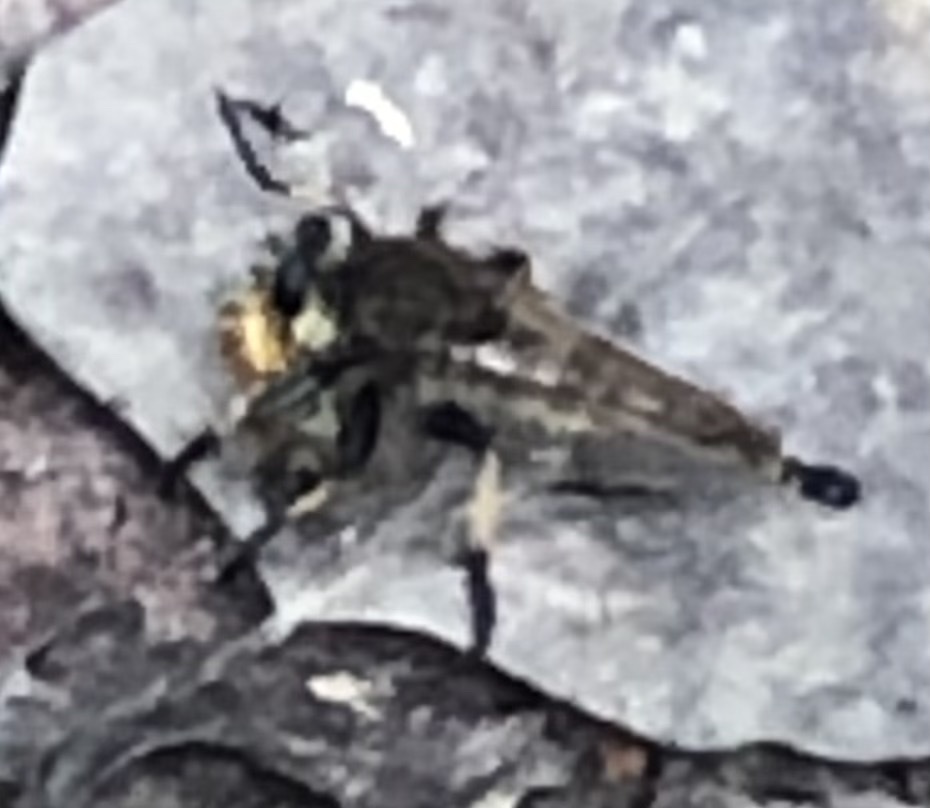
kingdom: Animalia
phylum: Arthropoda
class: Insecta
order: Diptera
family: Asilidae
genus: Promachus
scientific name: Promachus rufipes
